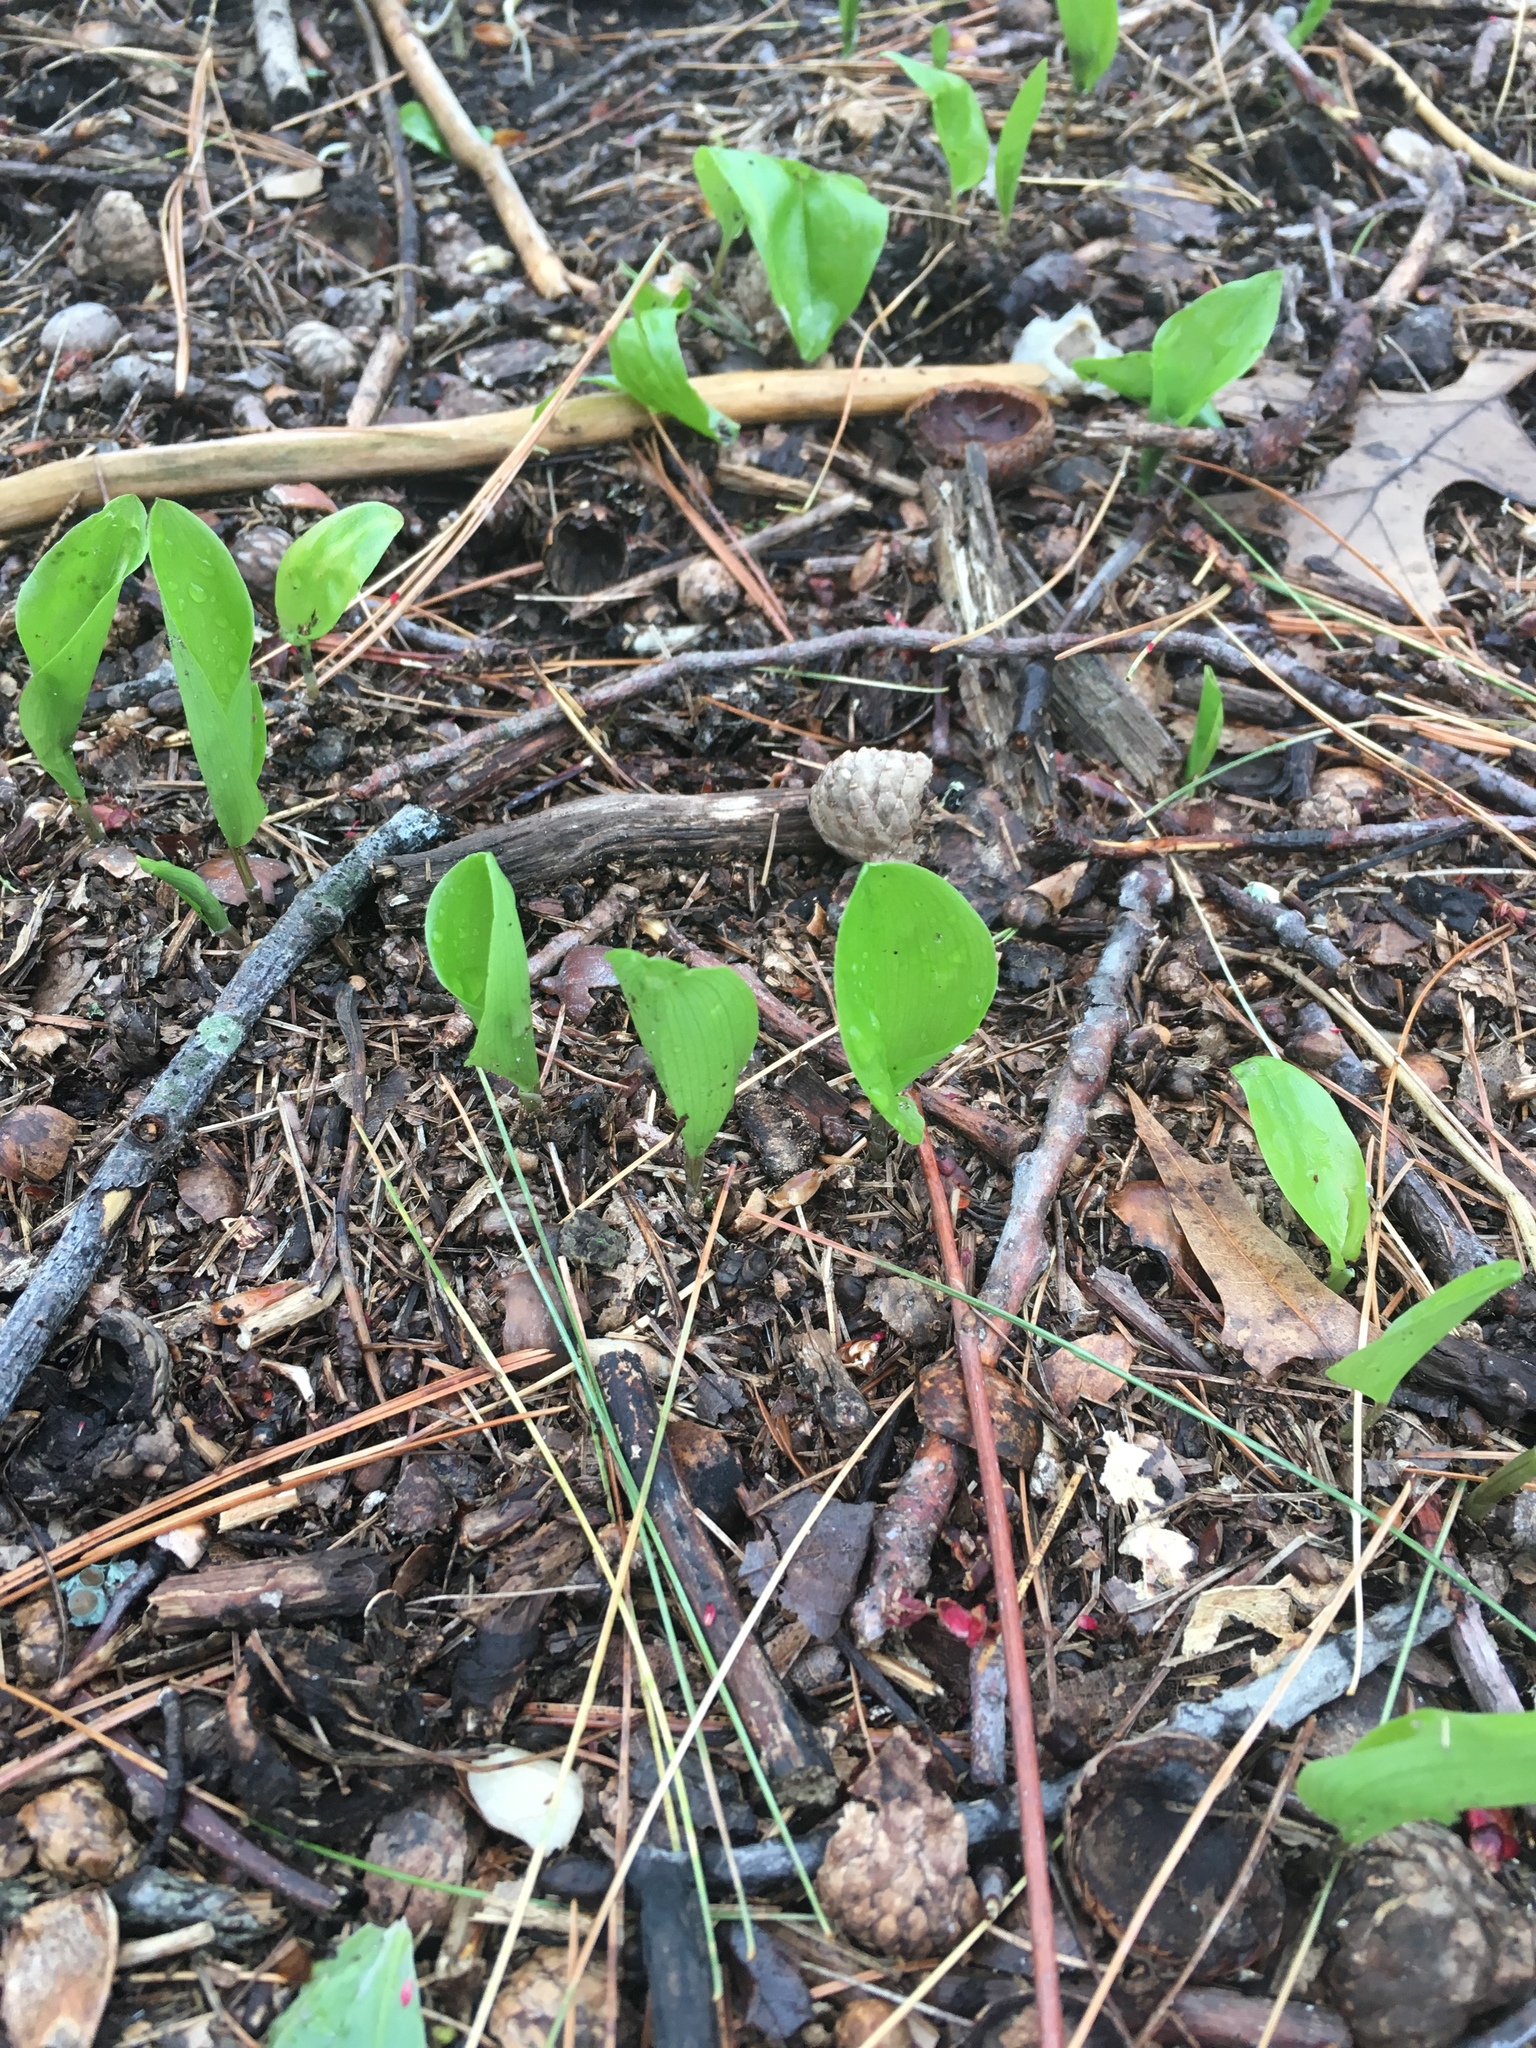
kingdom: Plantae
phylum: Tracheophyta
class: Liliopsida
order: Asparagales
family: Asparagaceae
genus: Maianthemum
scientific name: Maianthemum canadense
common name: False lily-of-the-valley
